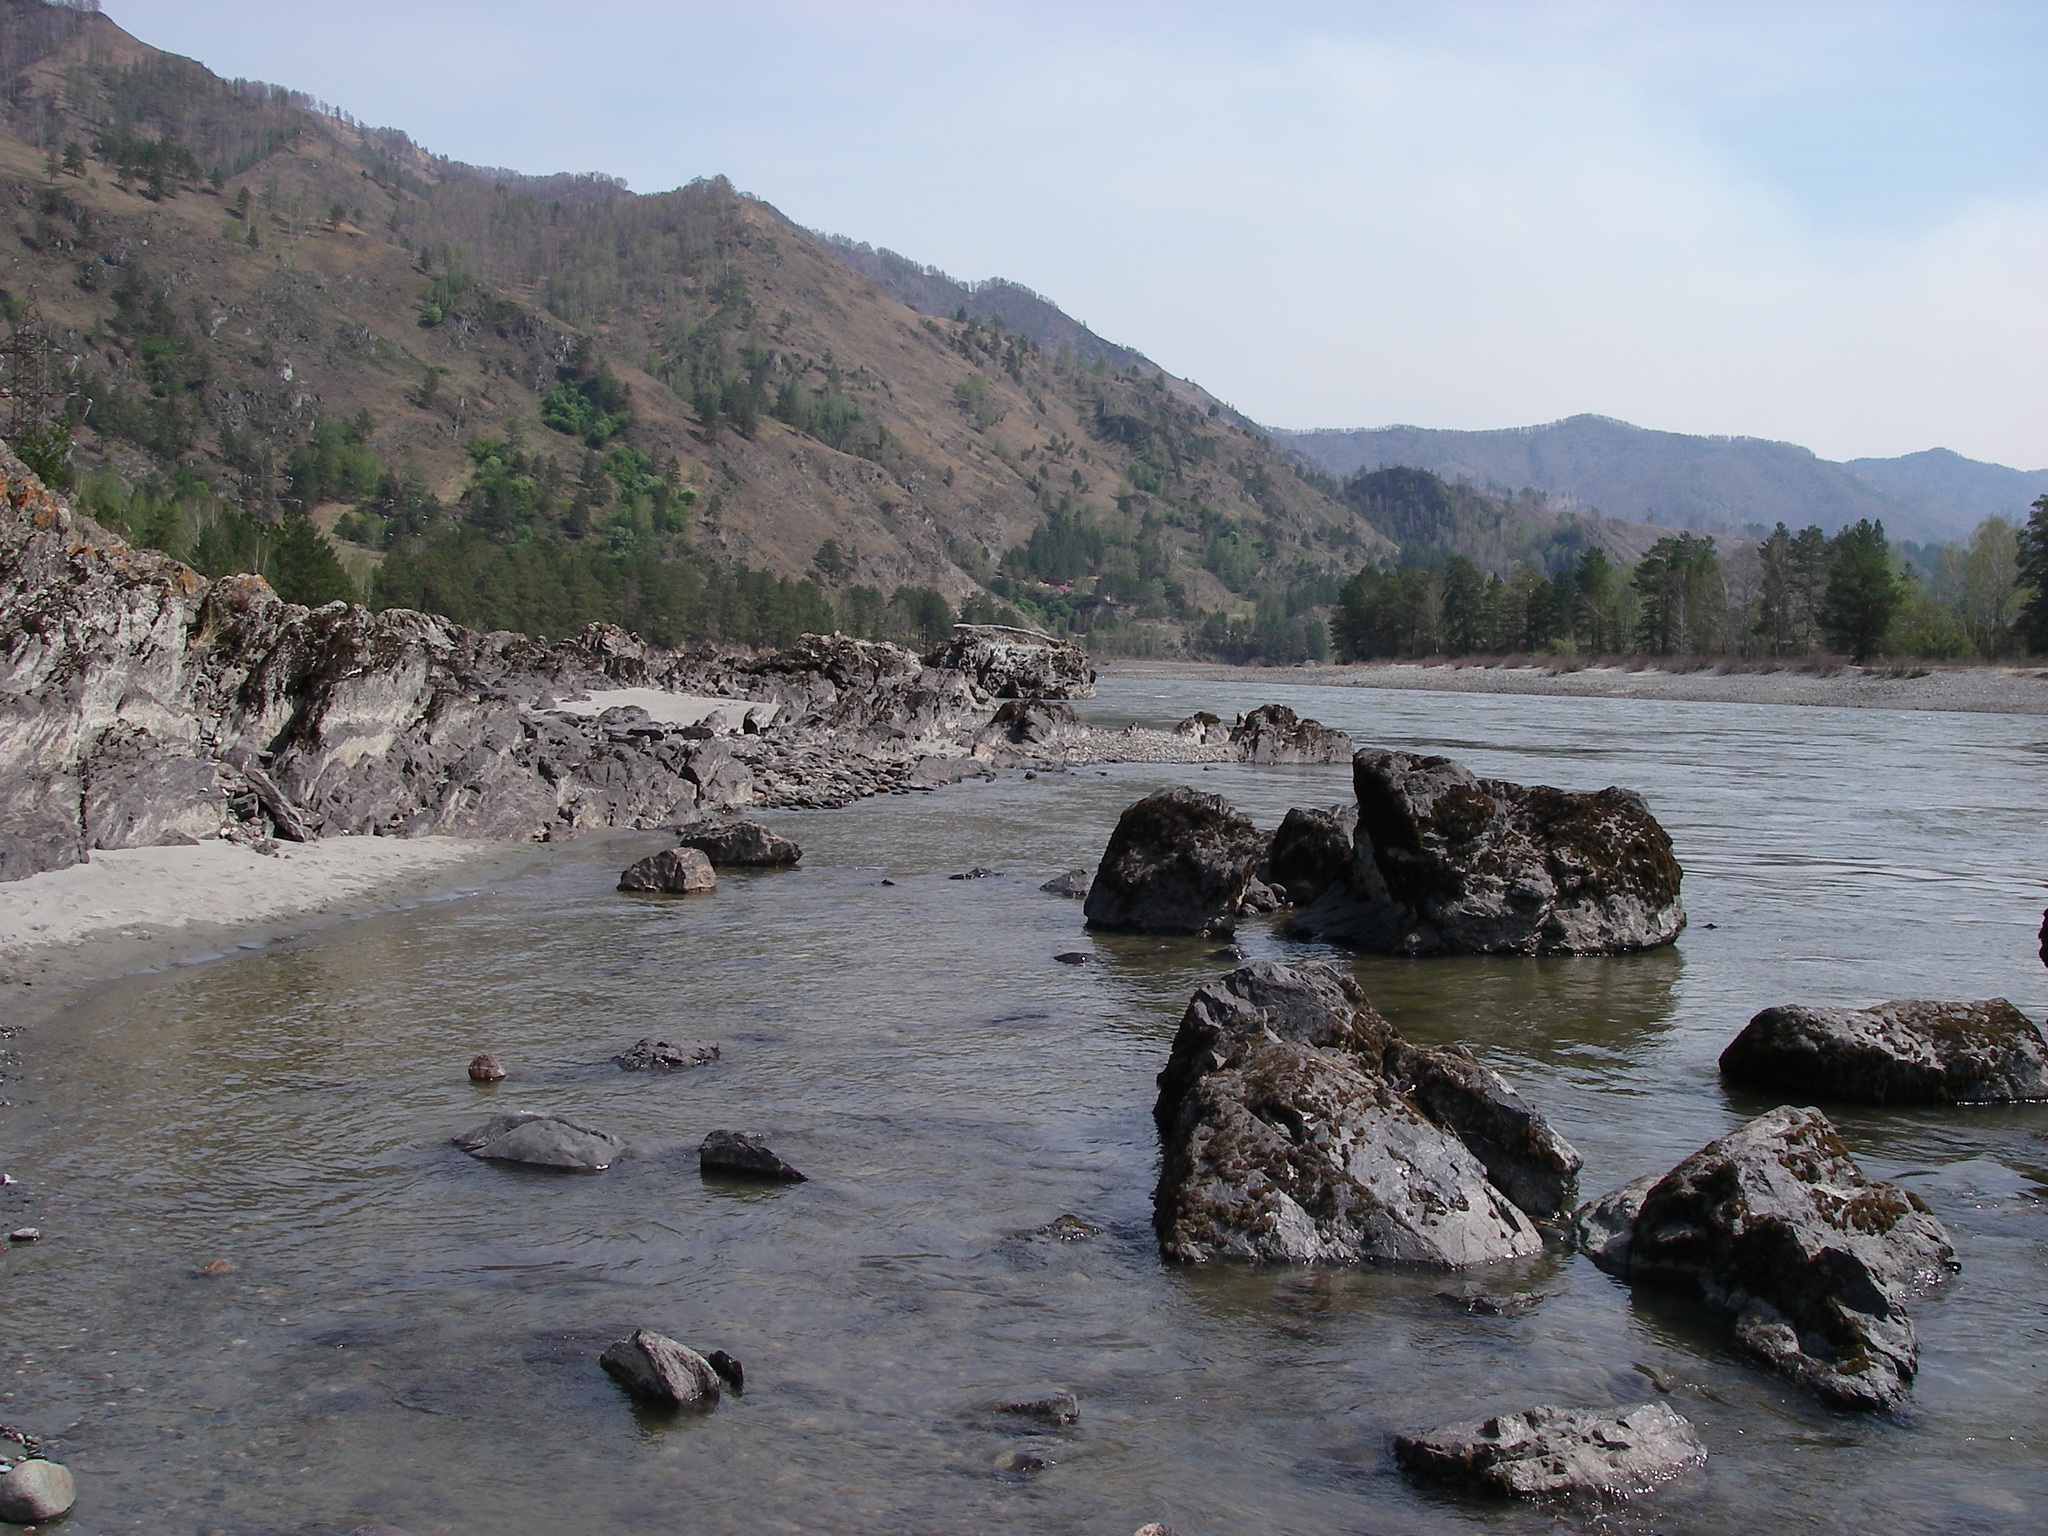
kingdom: Plantae
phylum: Tracheophyta
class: Pinopsida
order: Pinales
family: Pinaceae
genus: Pinus
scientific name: Pinus sylvestris
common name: Scots pine
